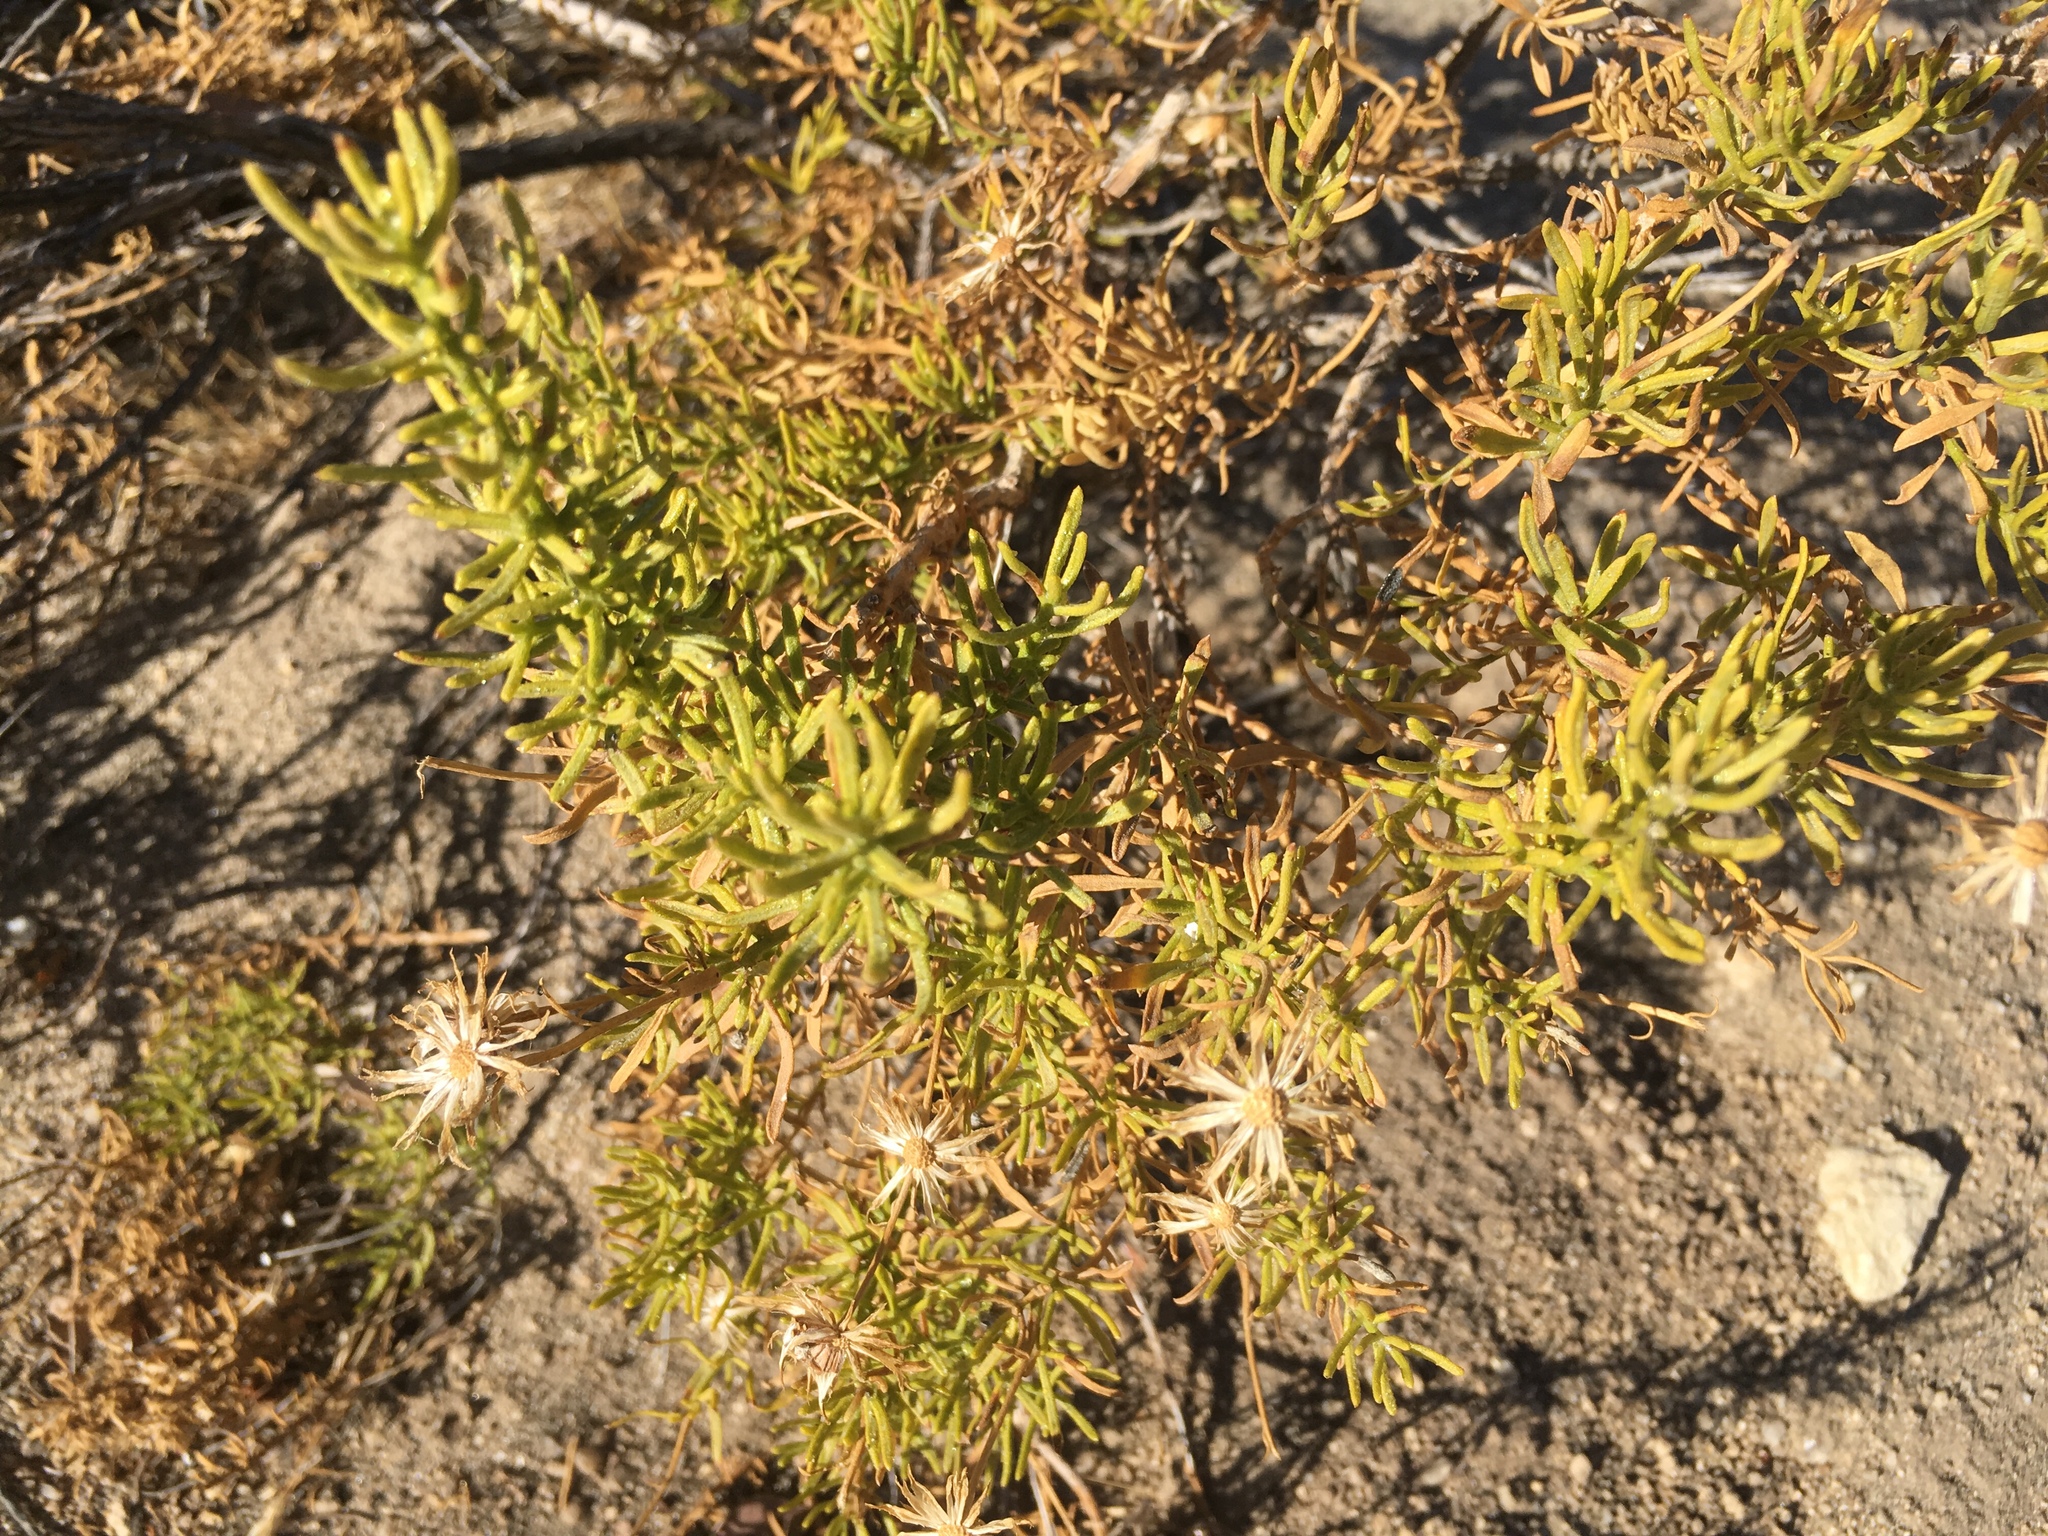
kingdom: Plantae
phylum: Tracheophyta
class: Magnoliopsida
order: Asterales
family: Asteraceae
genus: Ericameria
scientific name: Ericameria linearifolia
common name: Interior goldenbush
